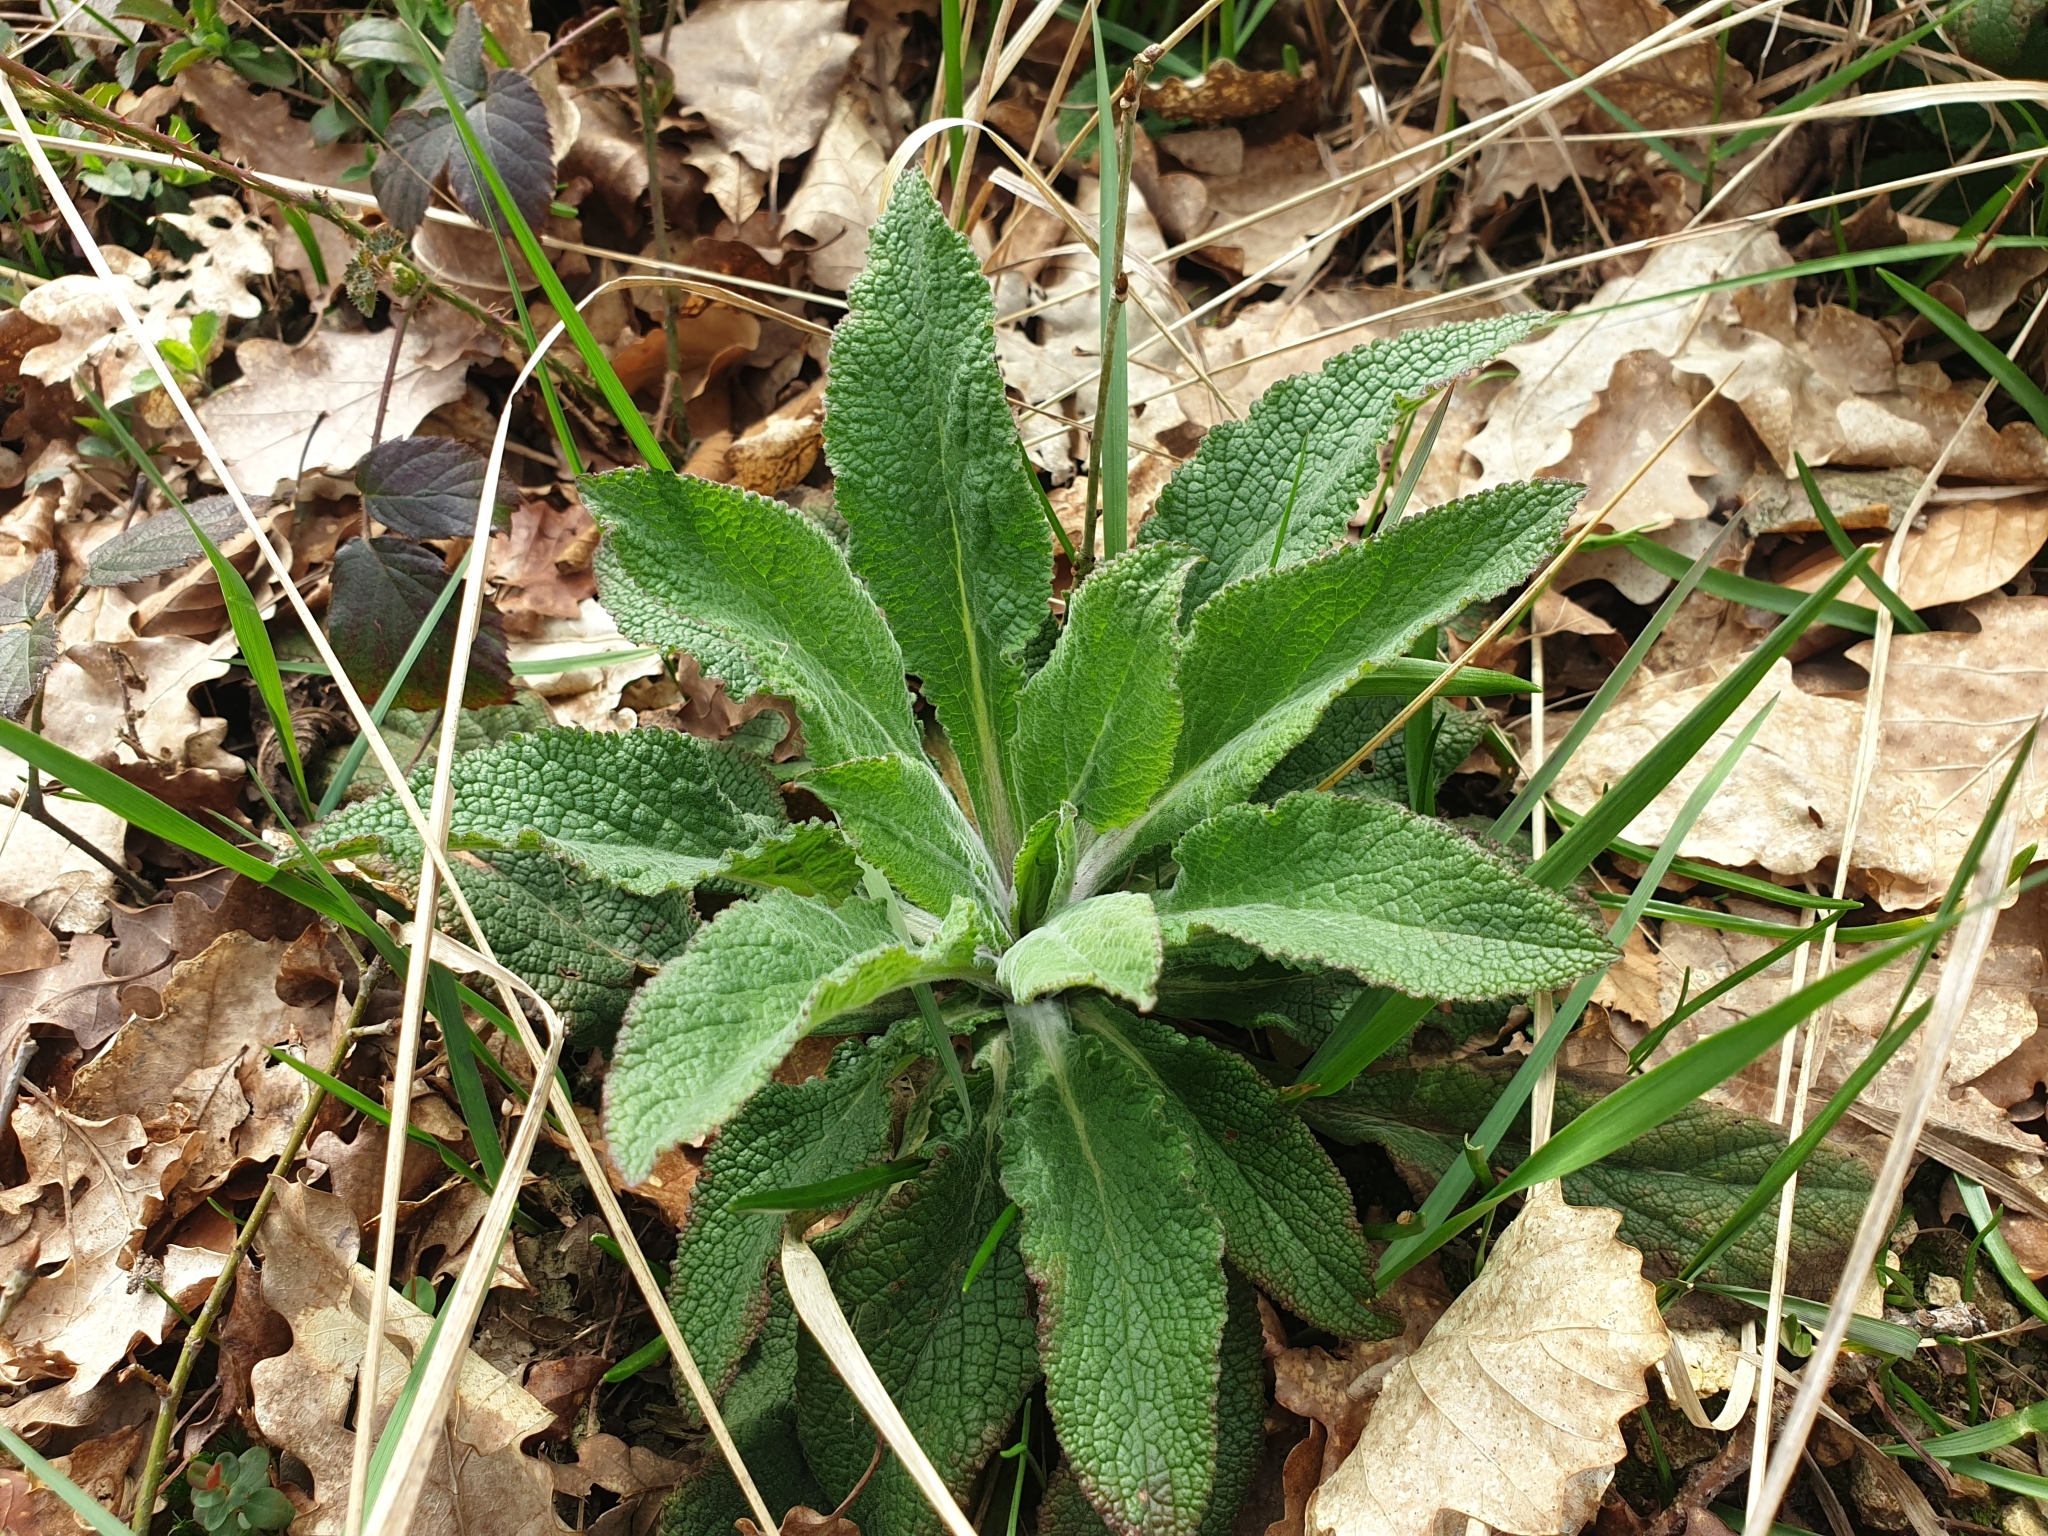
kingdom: Plantae
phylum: Tracheophyta
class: Magnoliopsida
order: Lamiales
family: Plantaginaceae
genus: Digitalis
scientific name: Digitalis purpurea
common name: Foxglove
